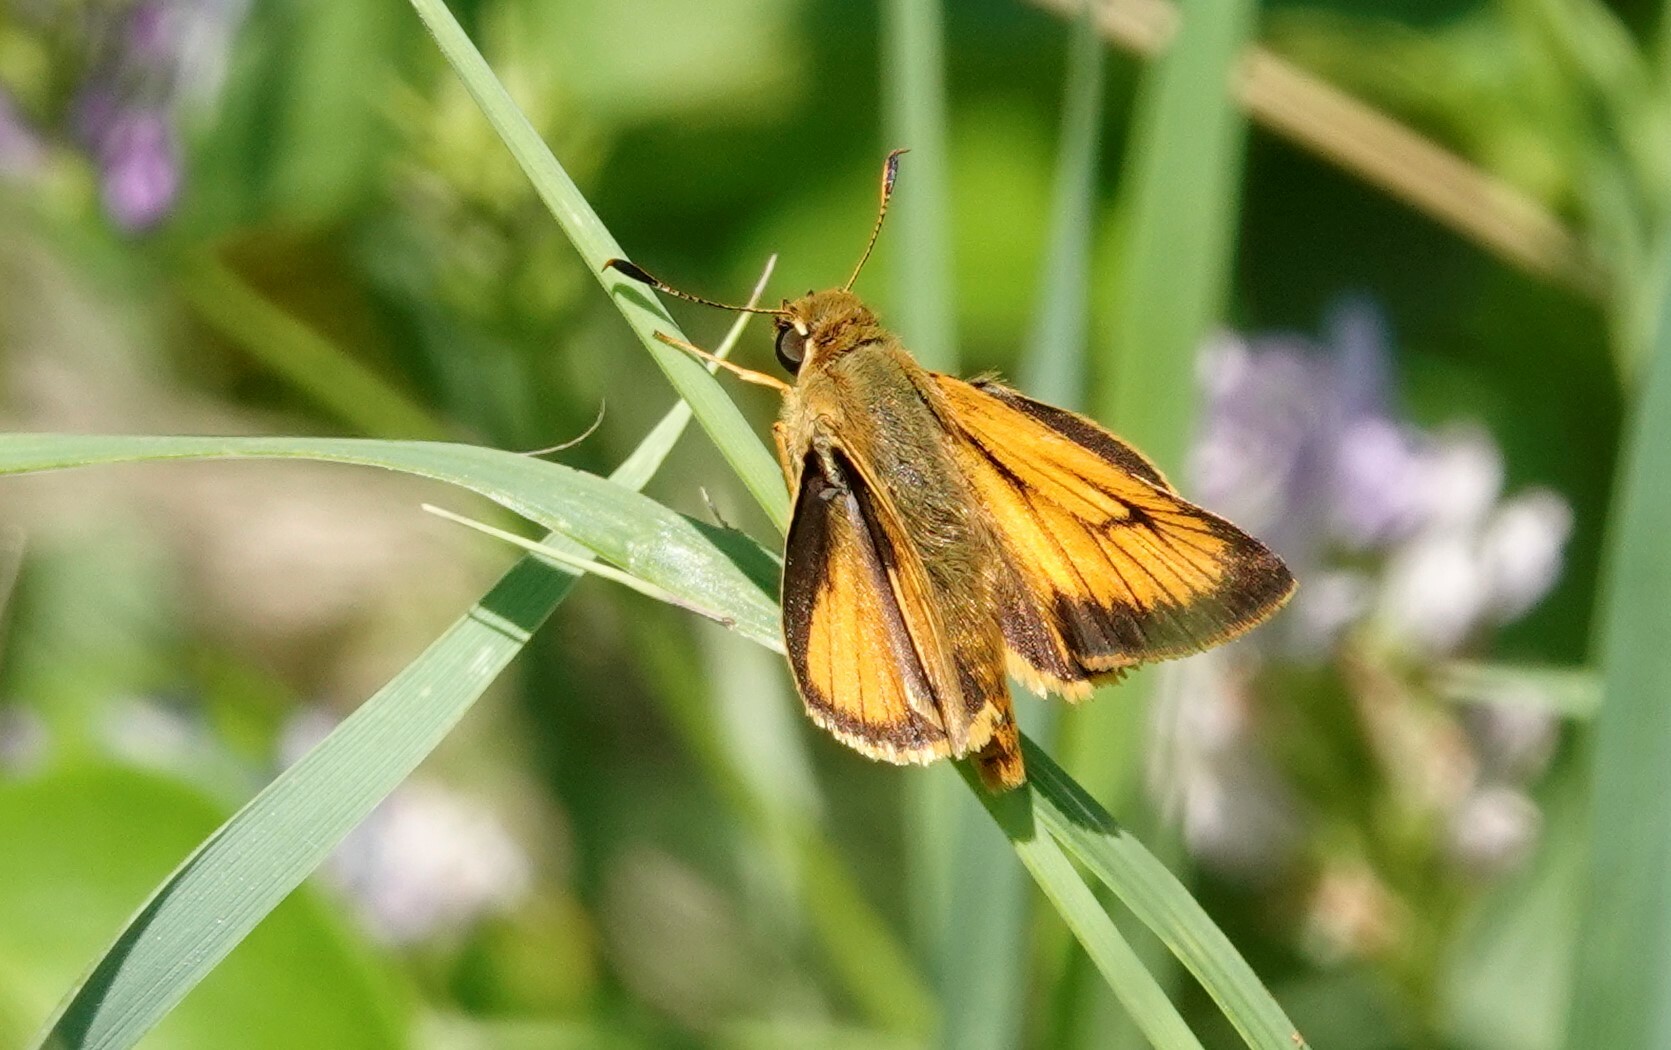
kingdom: Animalia
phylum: Arthropoda
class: Insecta
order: Lepidoptera
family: Hesperiidae
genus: Atrytone
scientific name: Atrytone delaware
